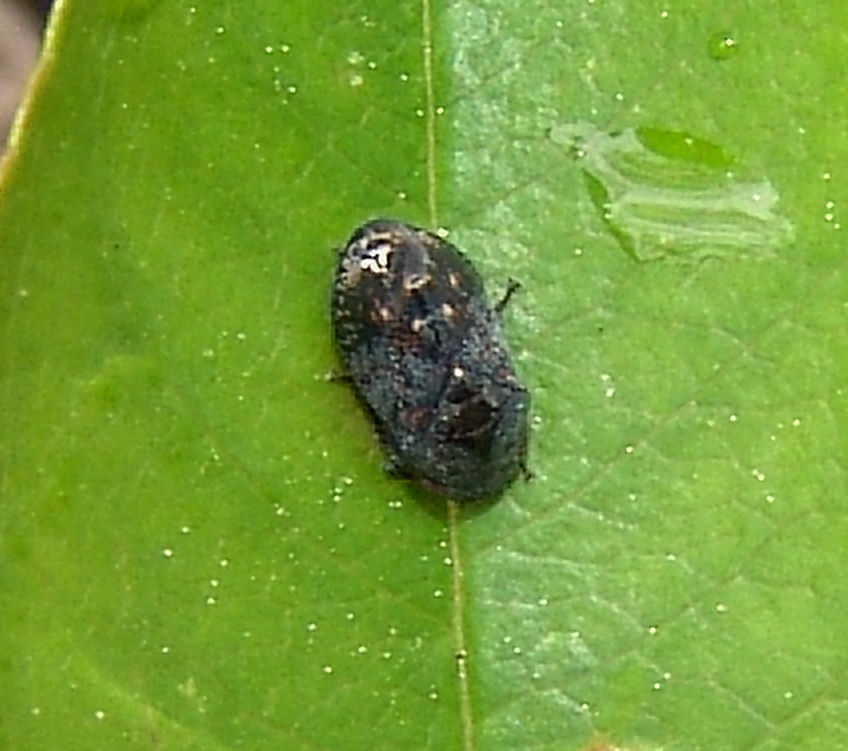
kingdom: Animalia
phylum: Arthropoda
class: Insecta
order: Hemiptera
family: Cicadellidae
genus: Penthimia
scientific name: Penthimia americana
